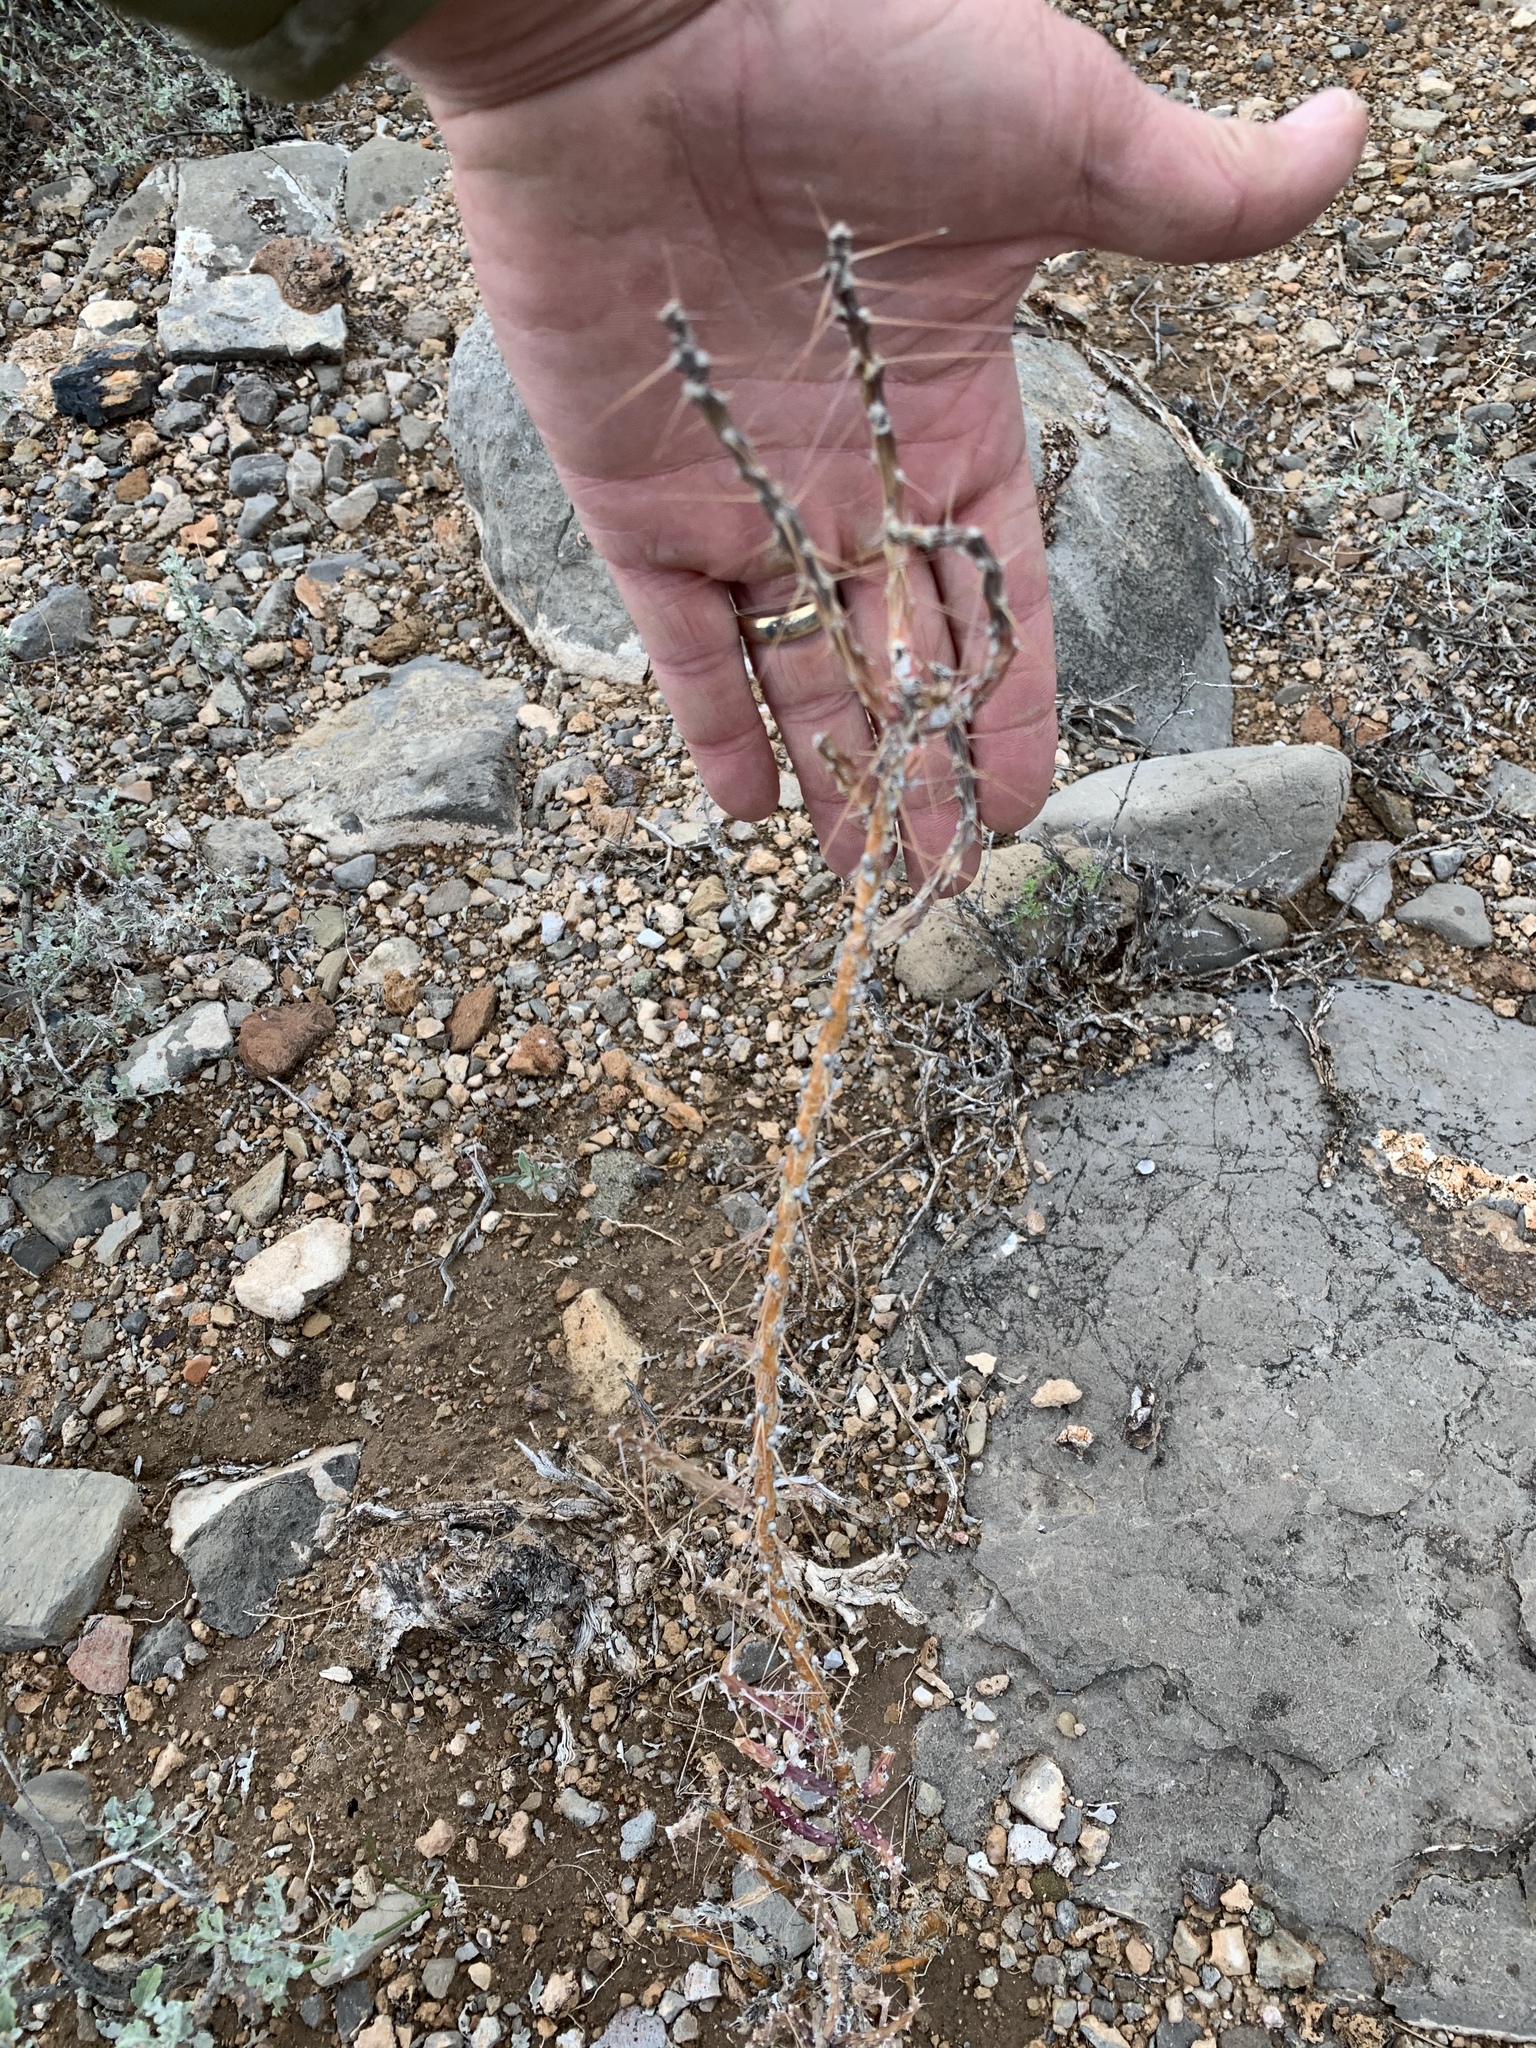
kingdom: Plantae
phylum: Tracheophyta
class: Magnoliopsida
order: Caryophyllales
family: Cactaceae
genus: Cylindropuntia
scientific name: Cylindropuntia leptocaulis
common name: Christmas cactus
